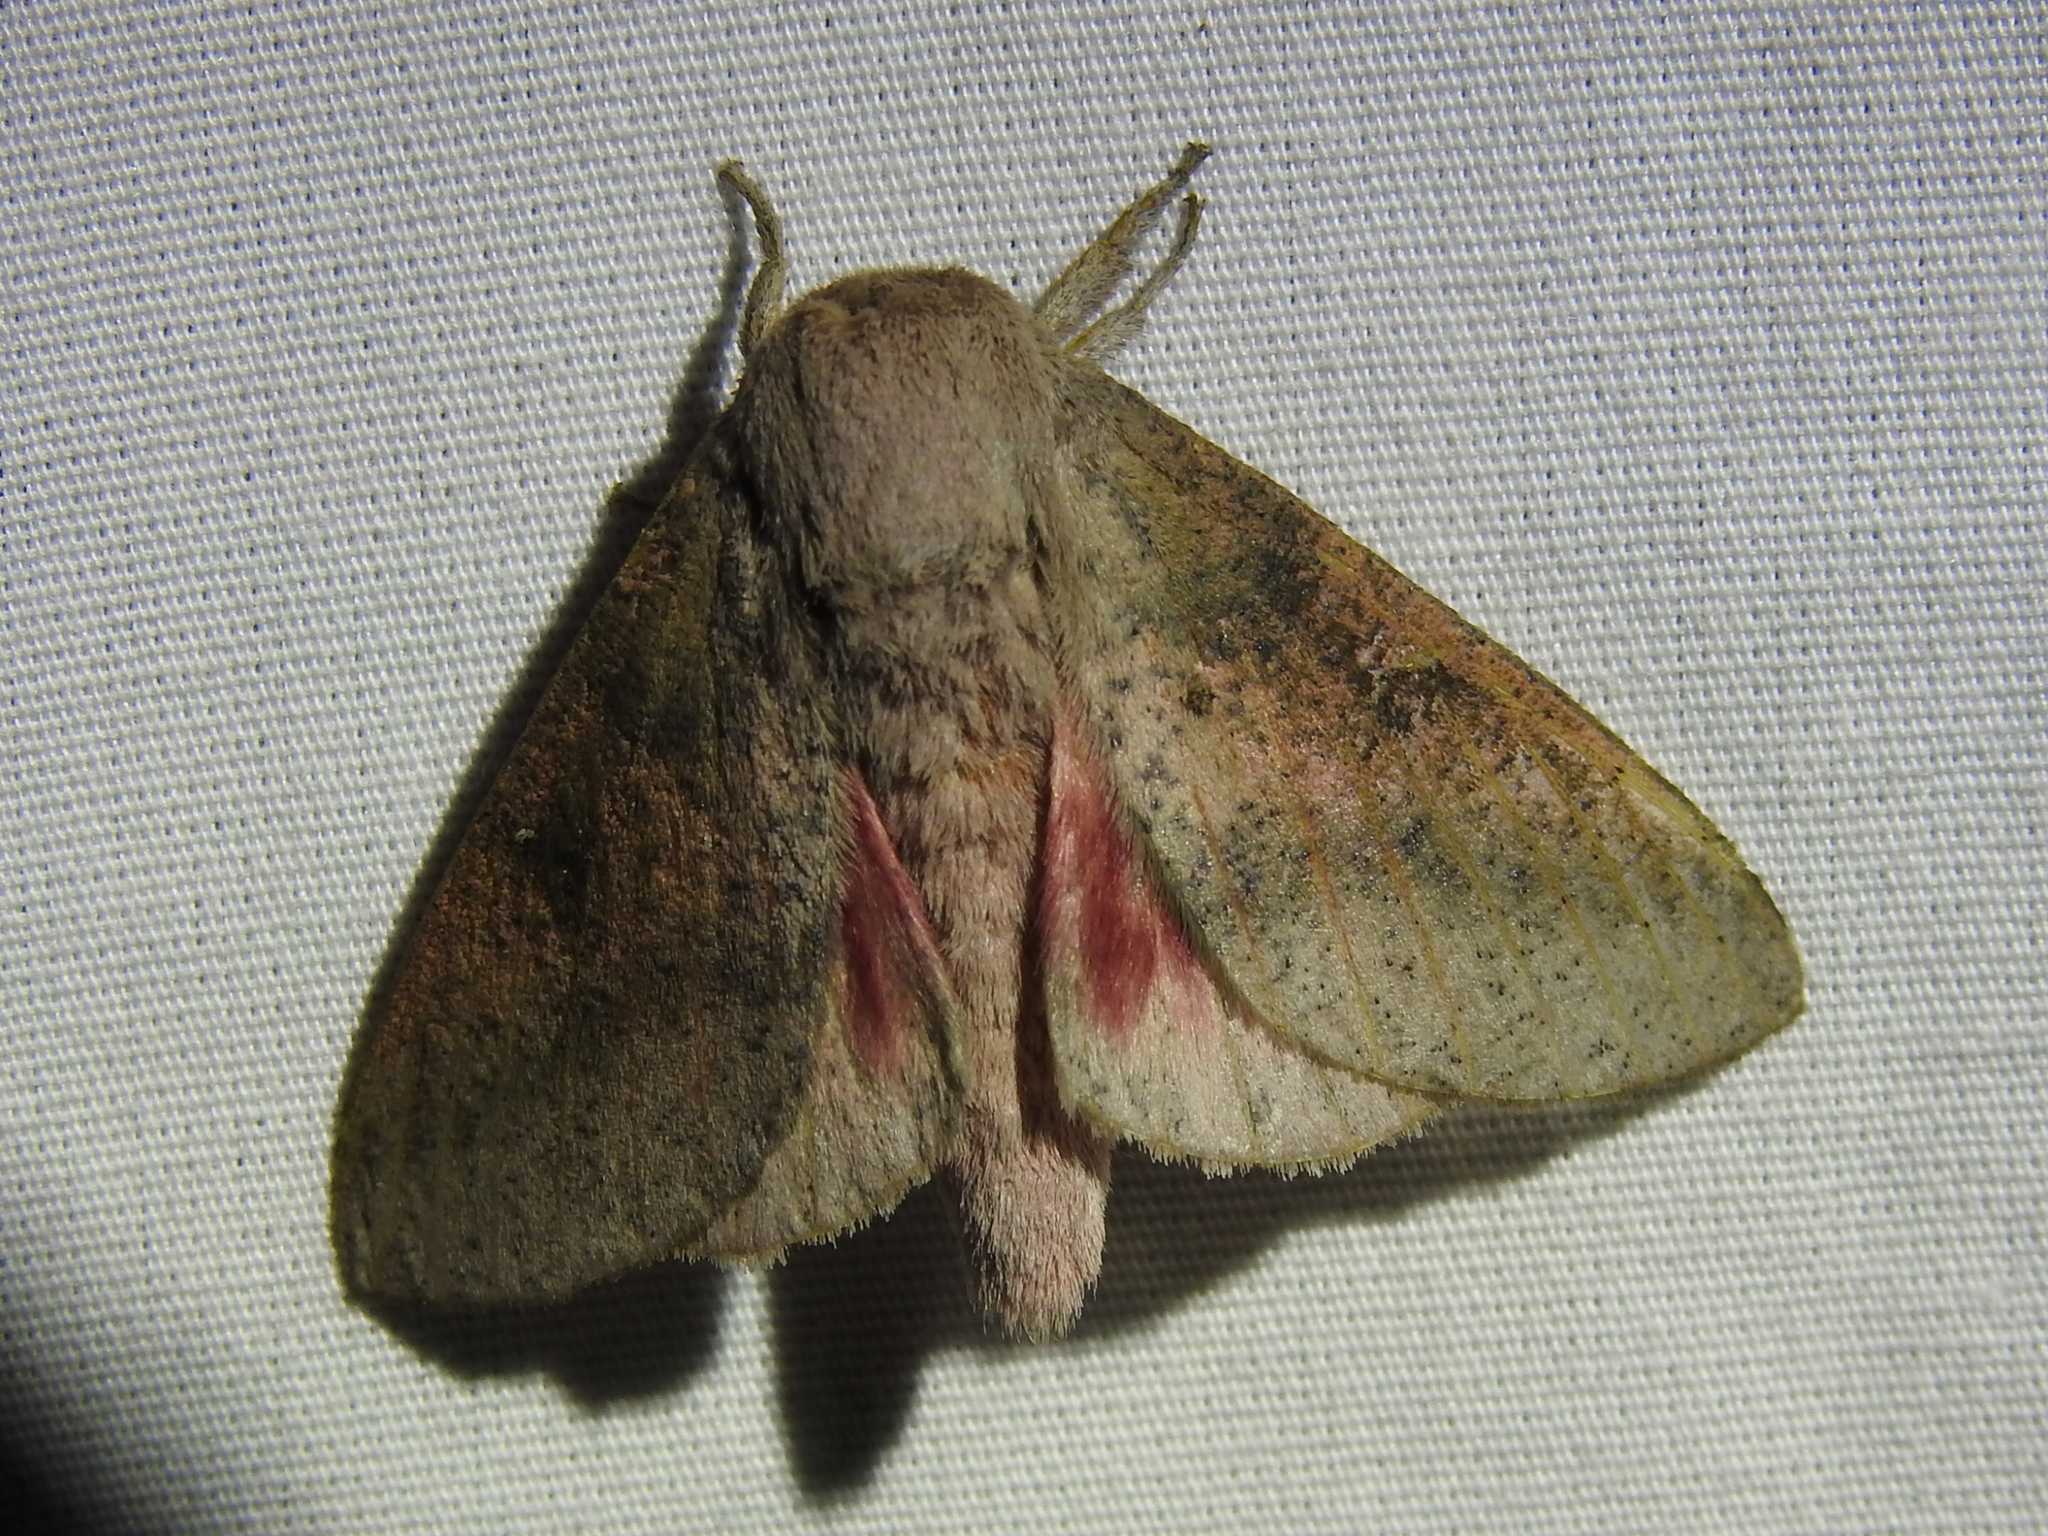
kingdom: Animalia
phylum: Arthropoda
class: Insecta
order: Lepidoptera
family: Saturniidae
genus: Syssphinx
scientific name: Syssphinx
